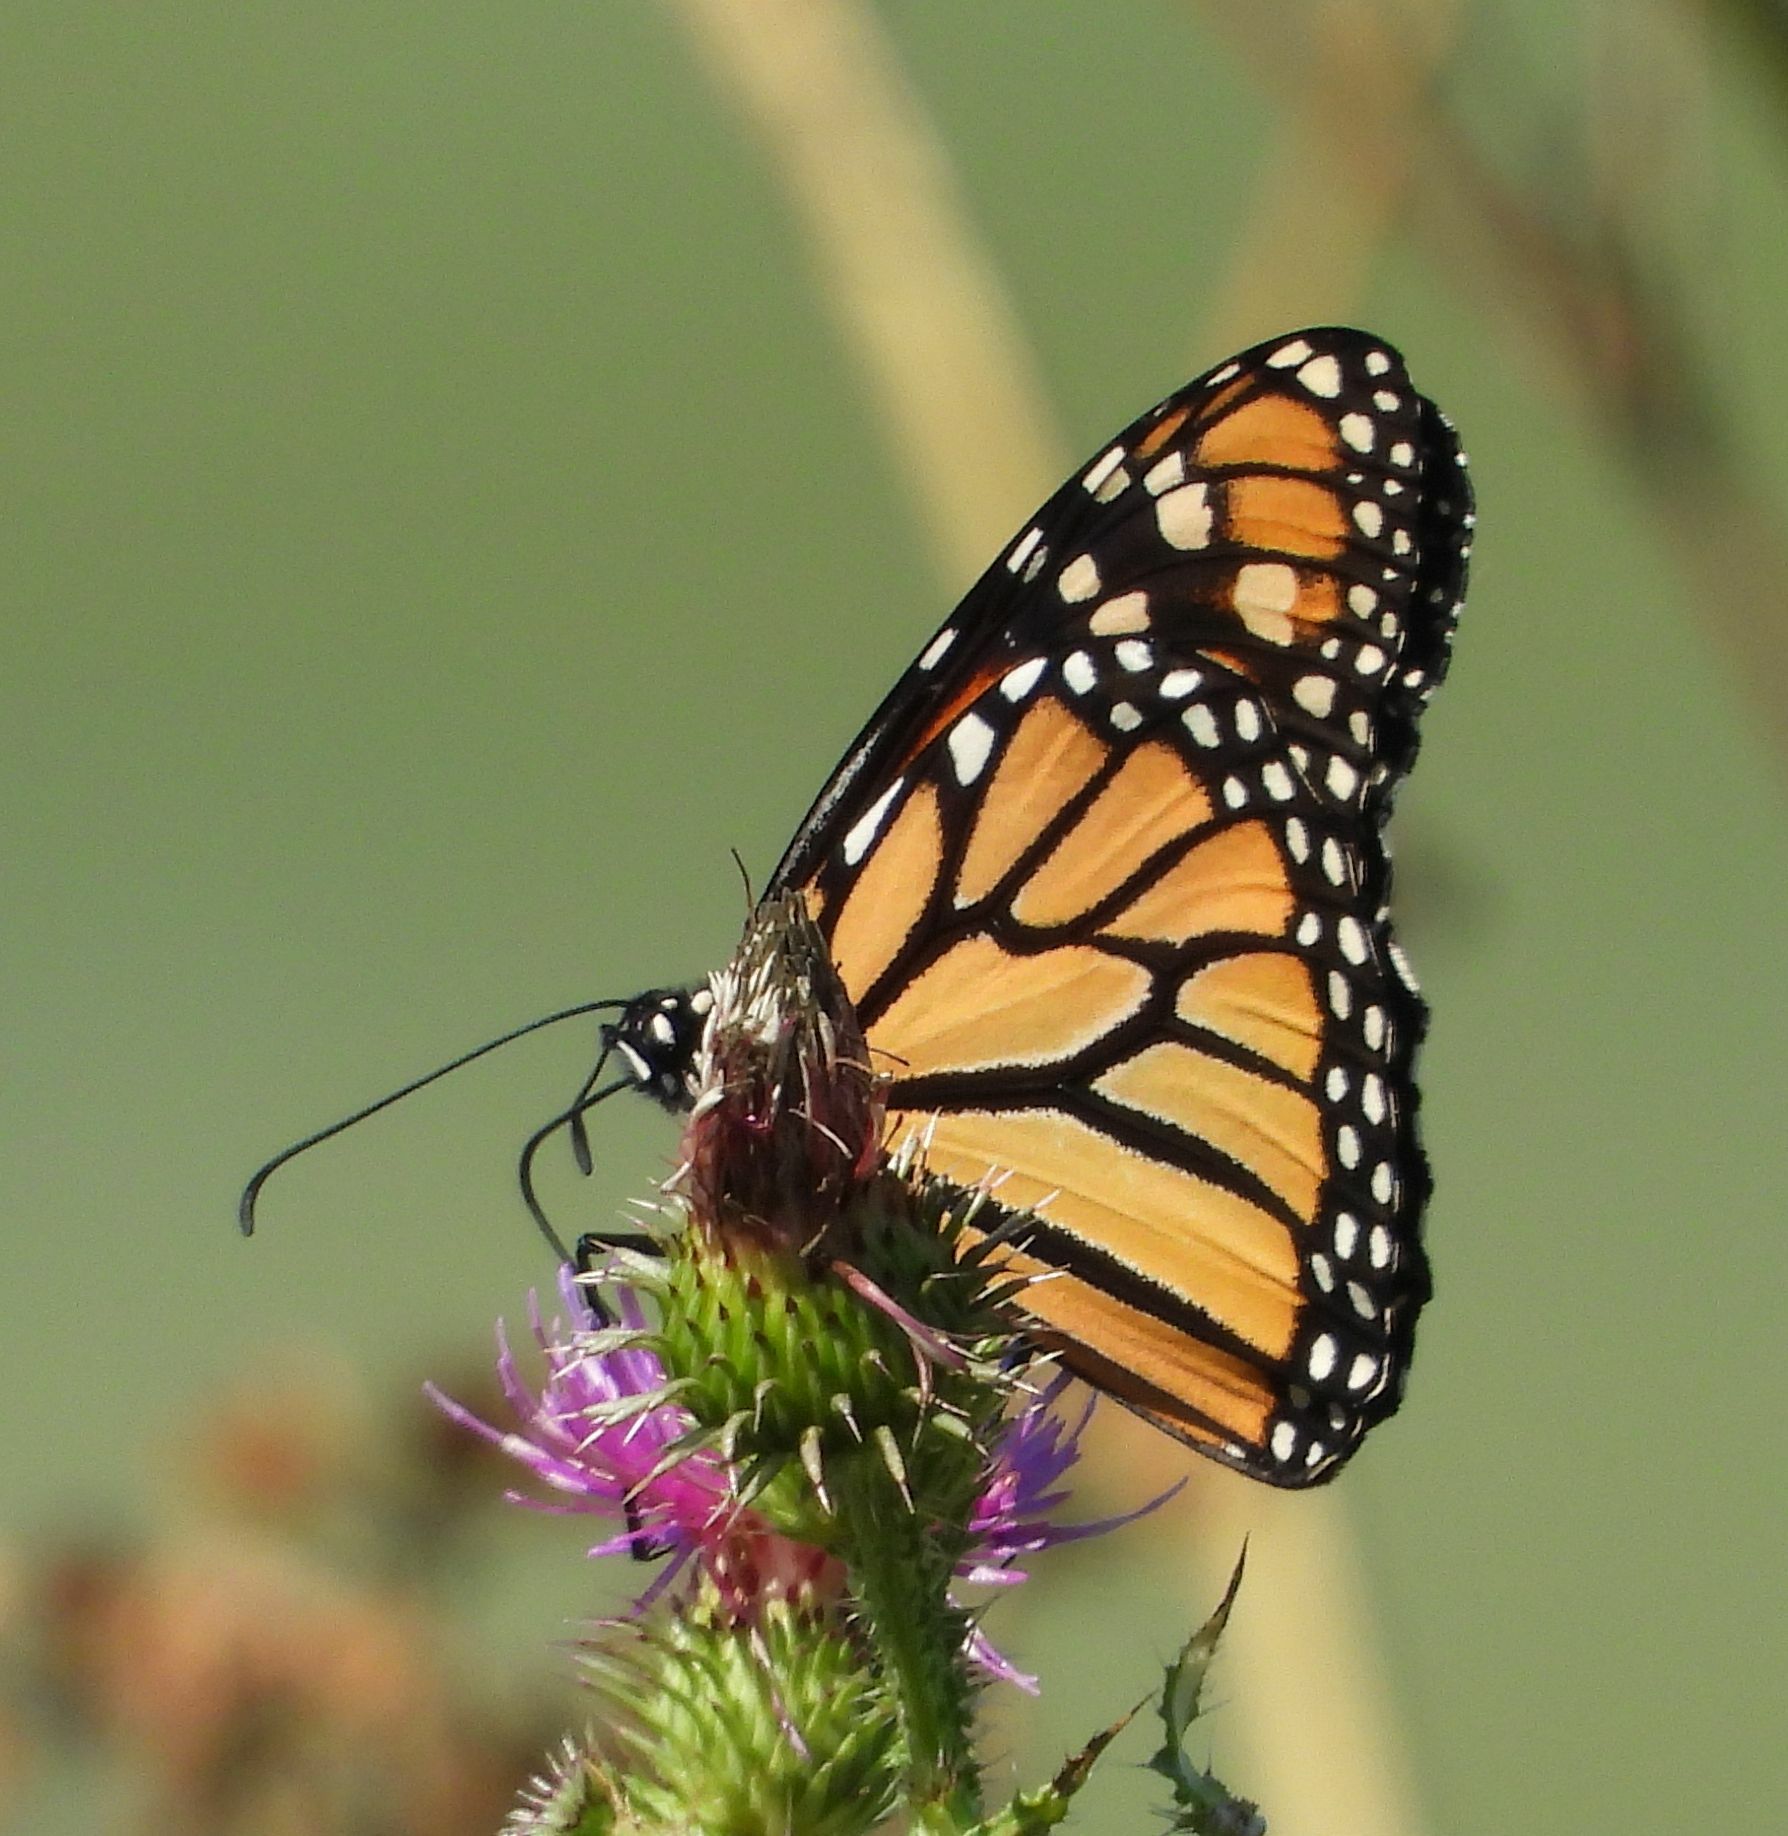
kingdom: Animalia
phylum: Arthropoda
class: Insecta
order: Lepidoptera
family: Nymphalidae
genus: Danaus
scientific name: Danaus plexippus
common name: Monarch
